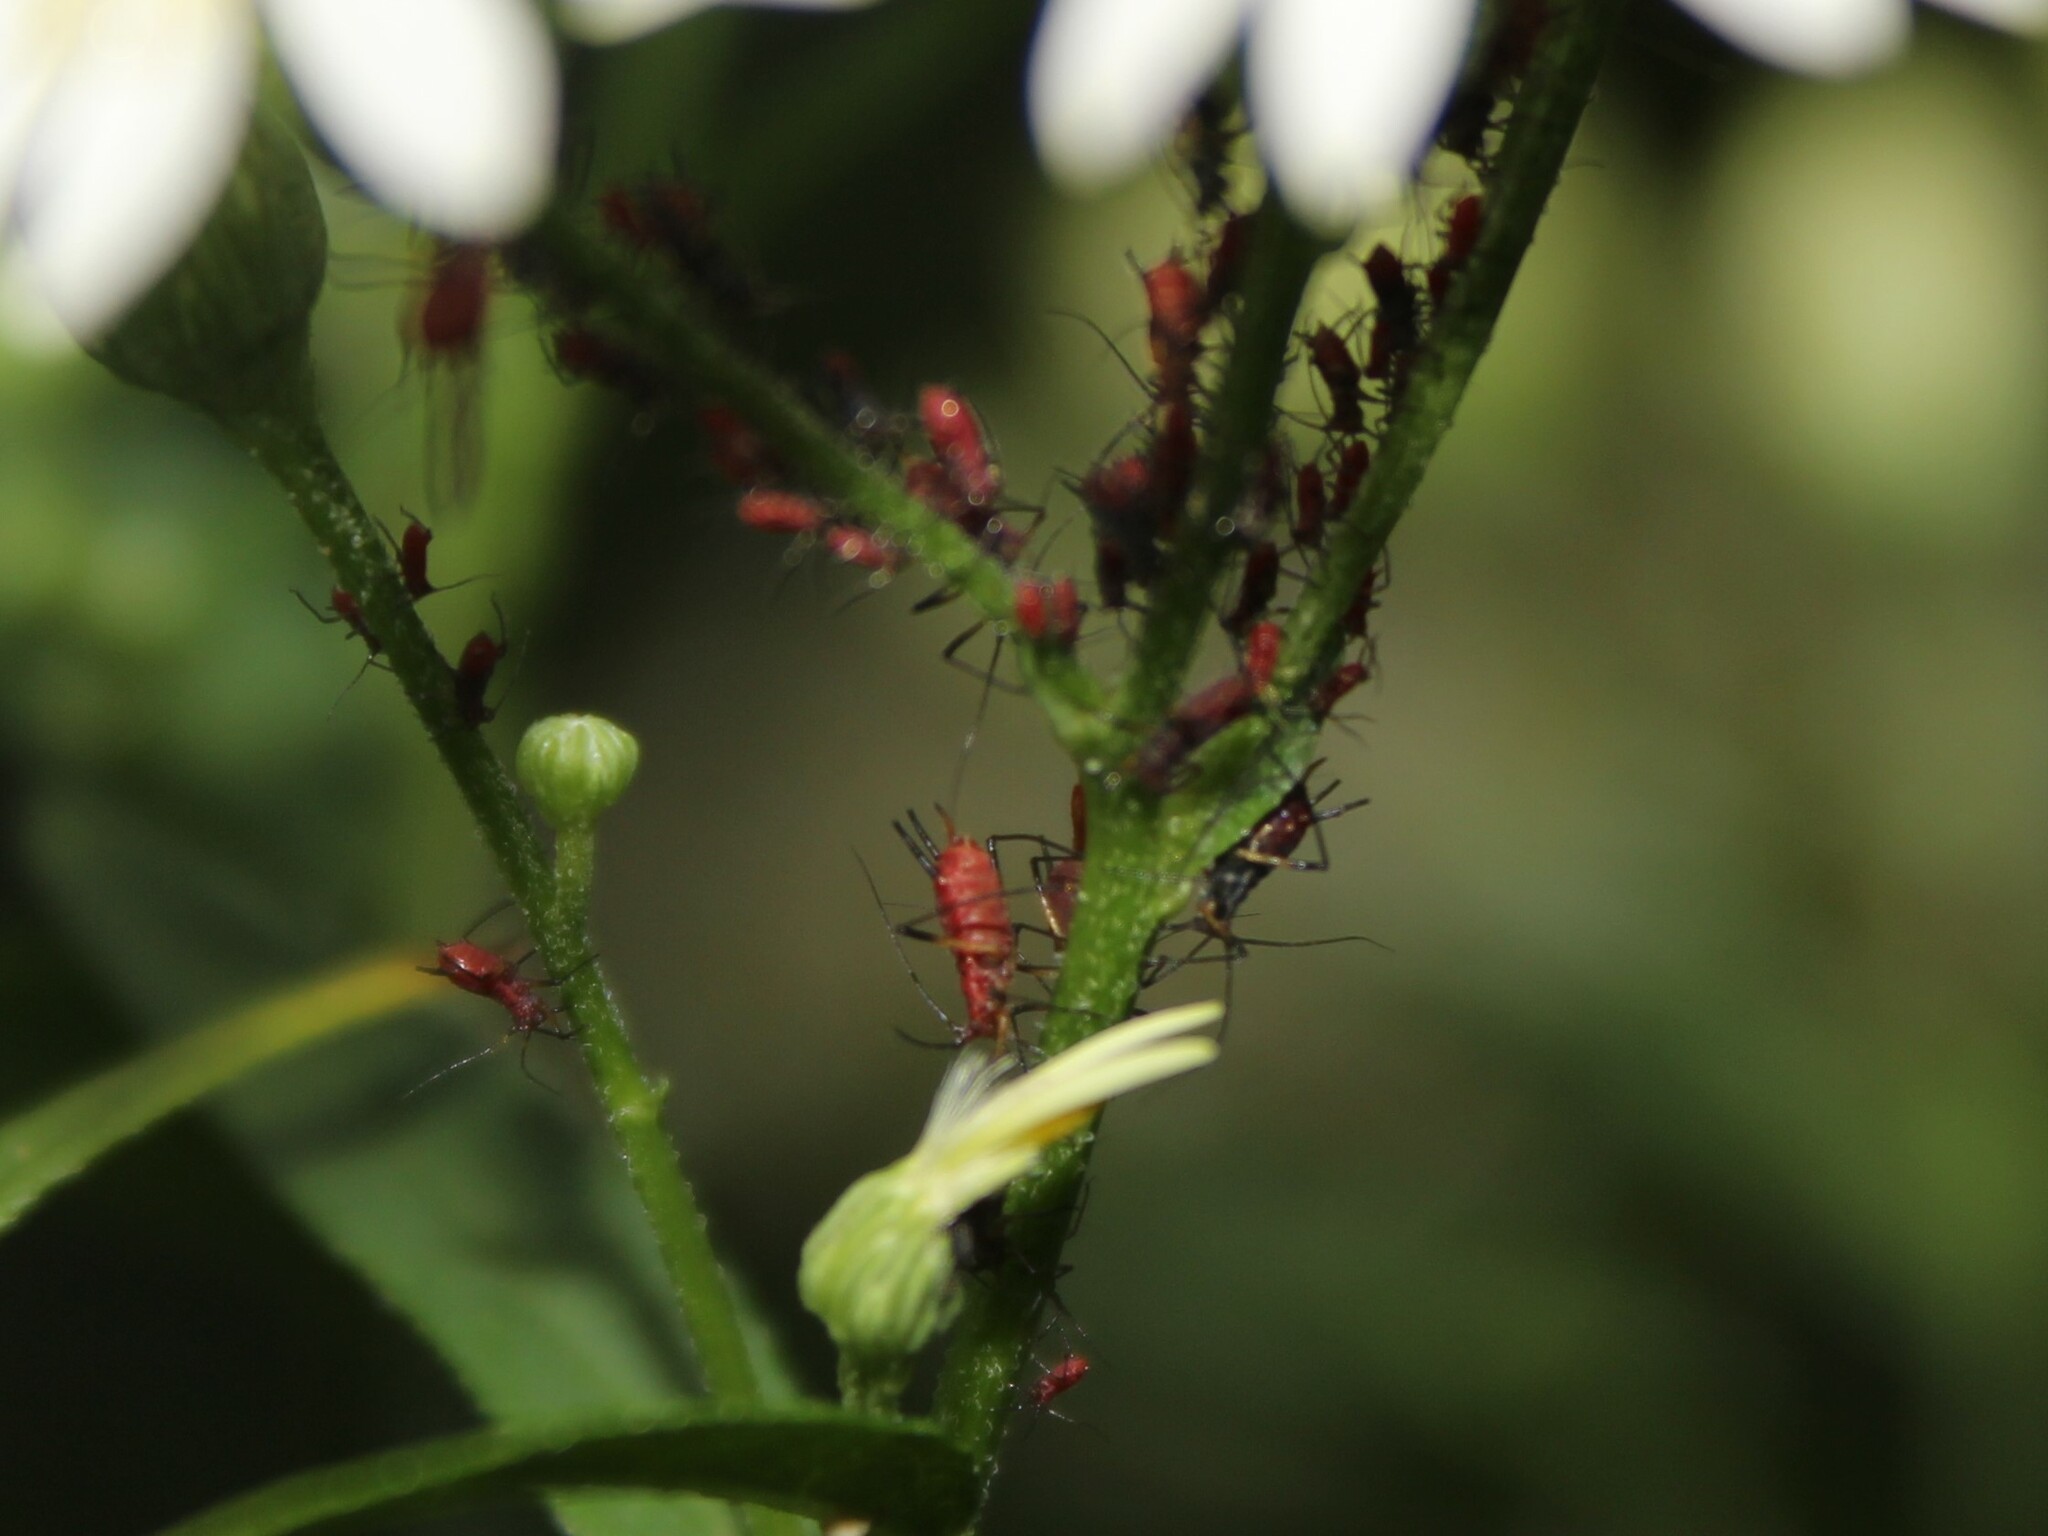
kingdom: Animalia
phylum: Arthropoda
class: Insecta
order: Hemiptera
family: Aphididae
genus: Uroleucon
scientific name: Uroleucon
